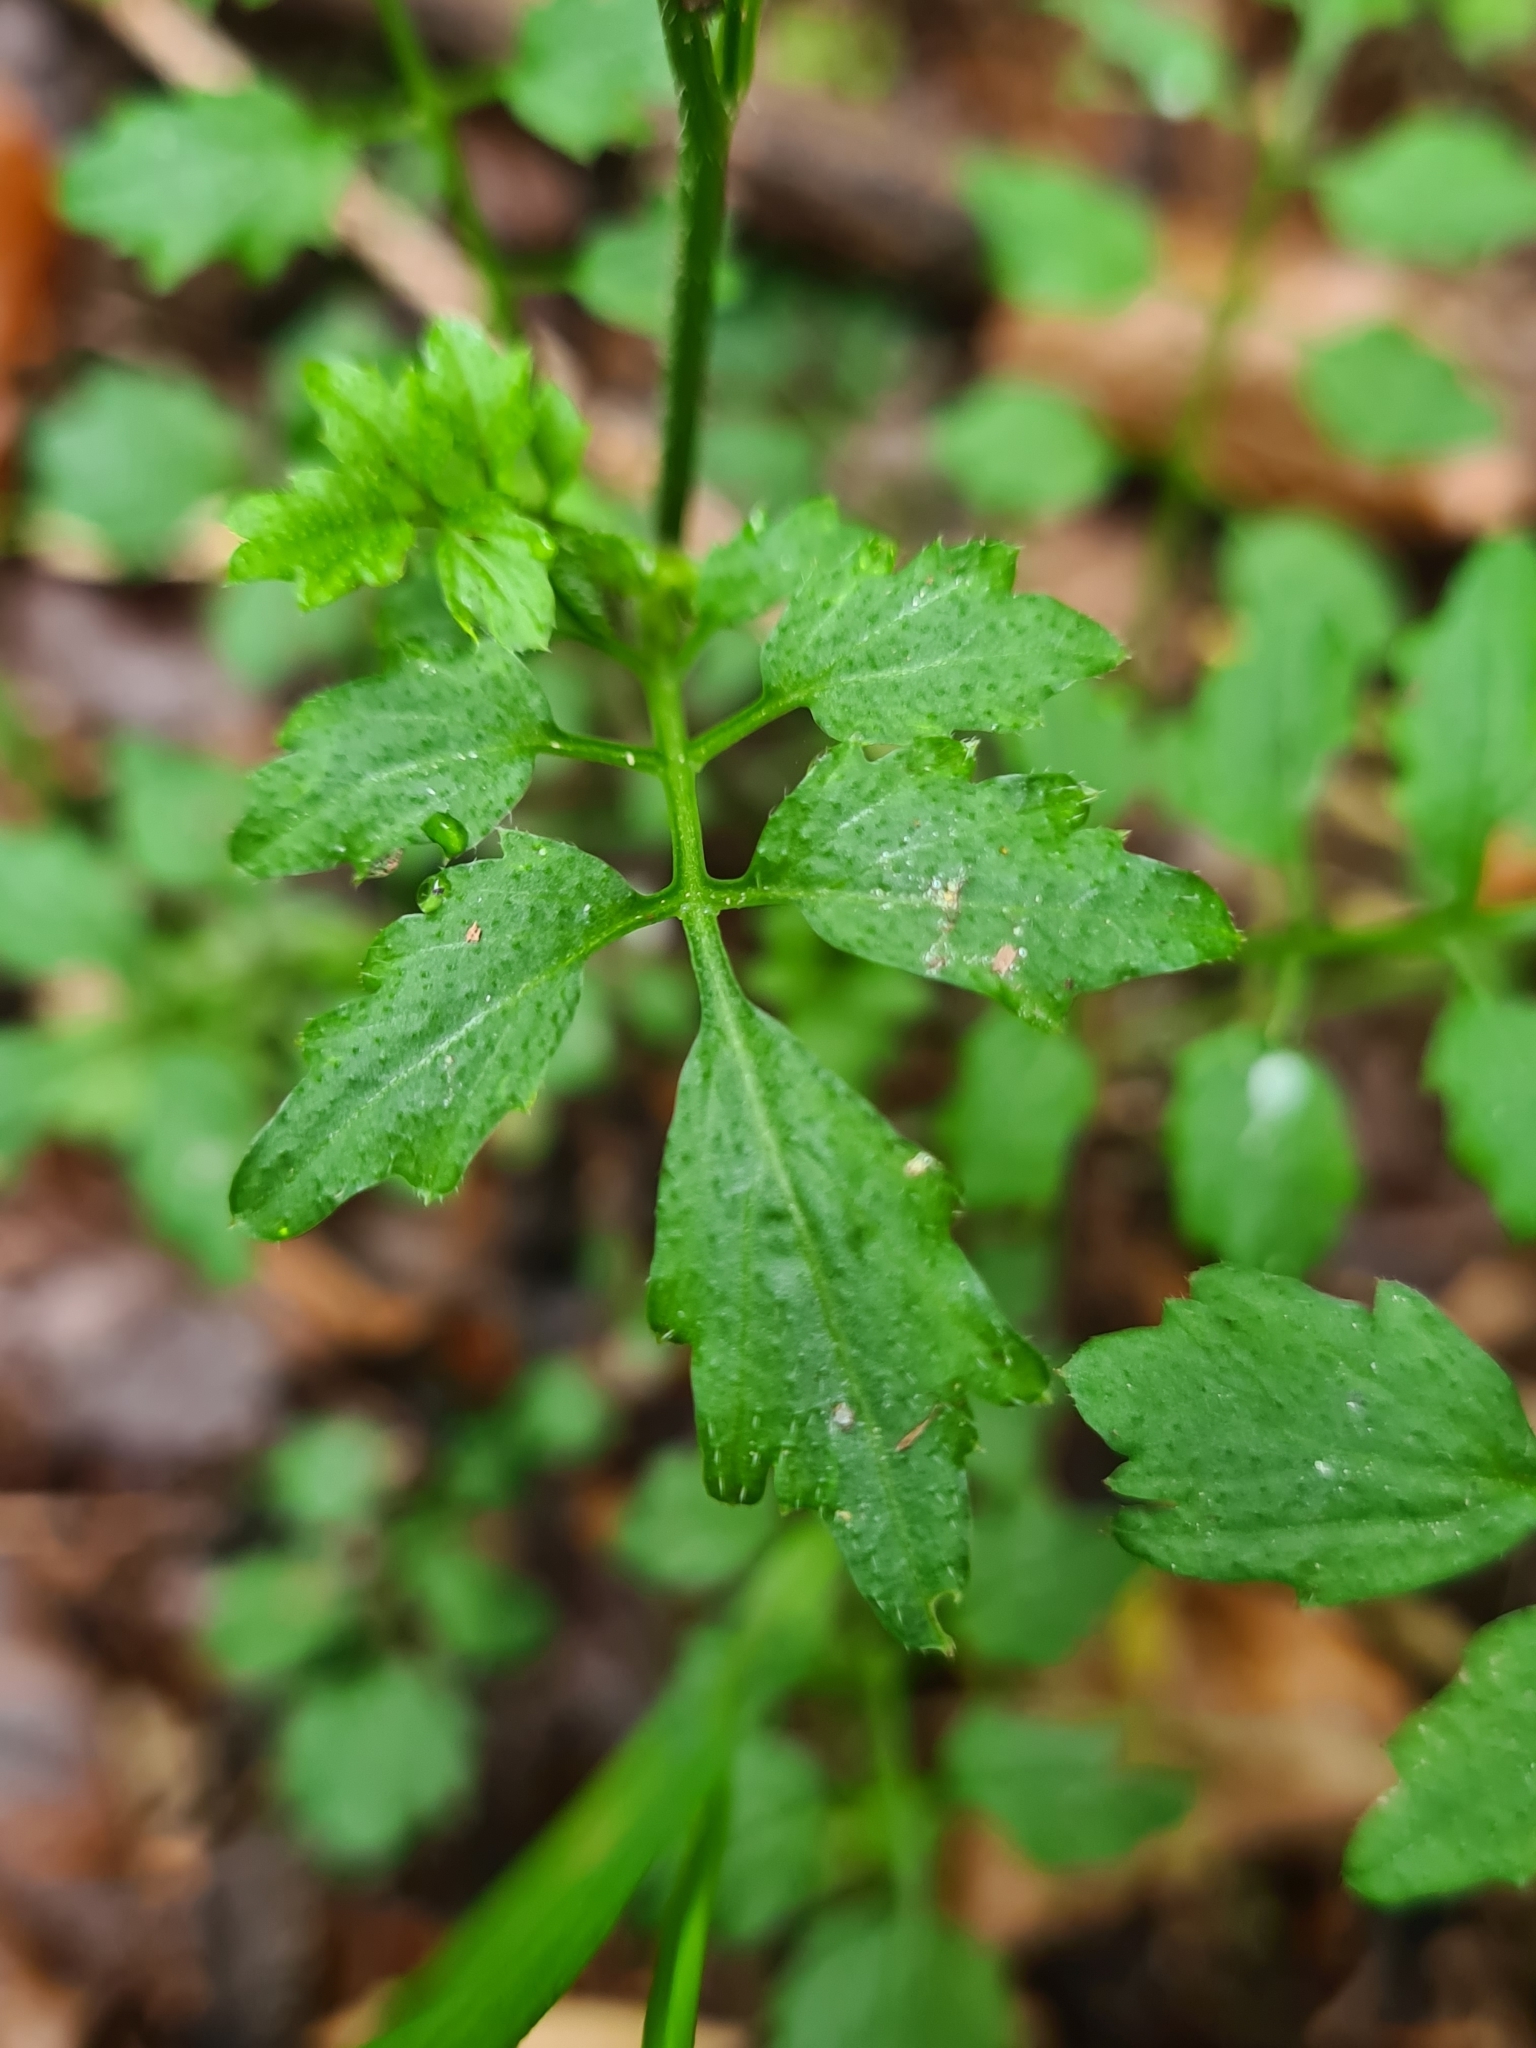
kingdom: Plantae
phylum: Tracheophyta
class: Magnoliopsida
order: Brassicales
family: Brassicaceae
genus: Cardamine
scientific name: Cardamine flexuosa
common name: Woodland bittercress
